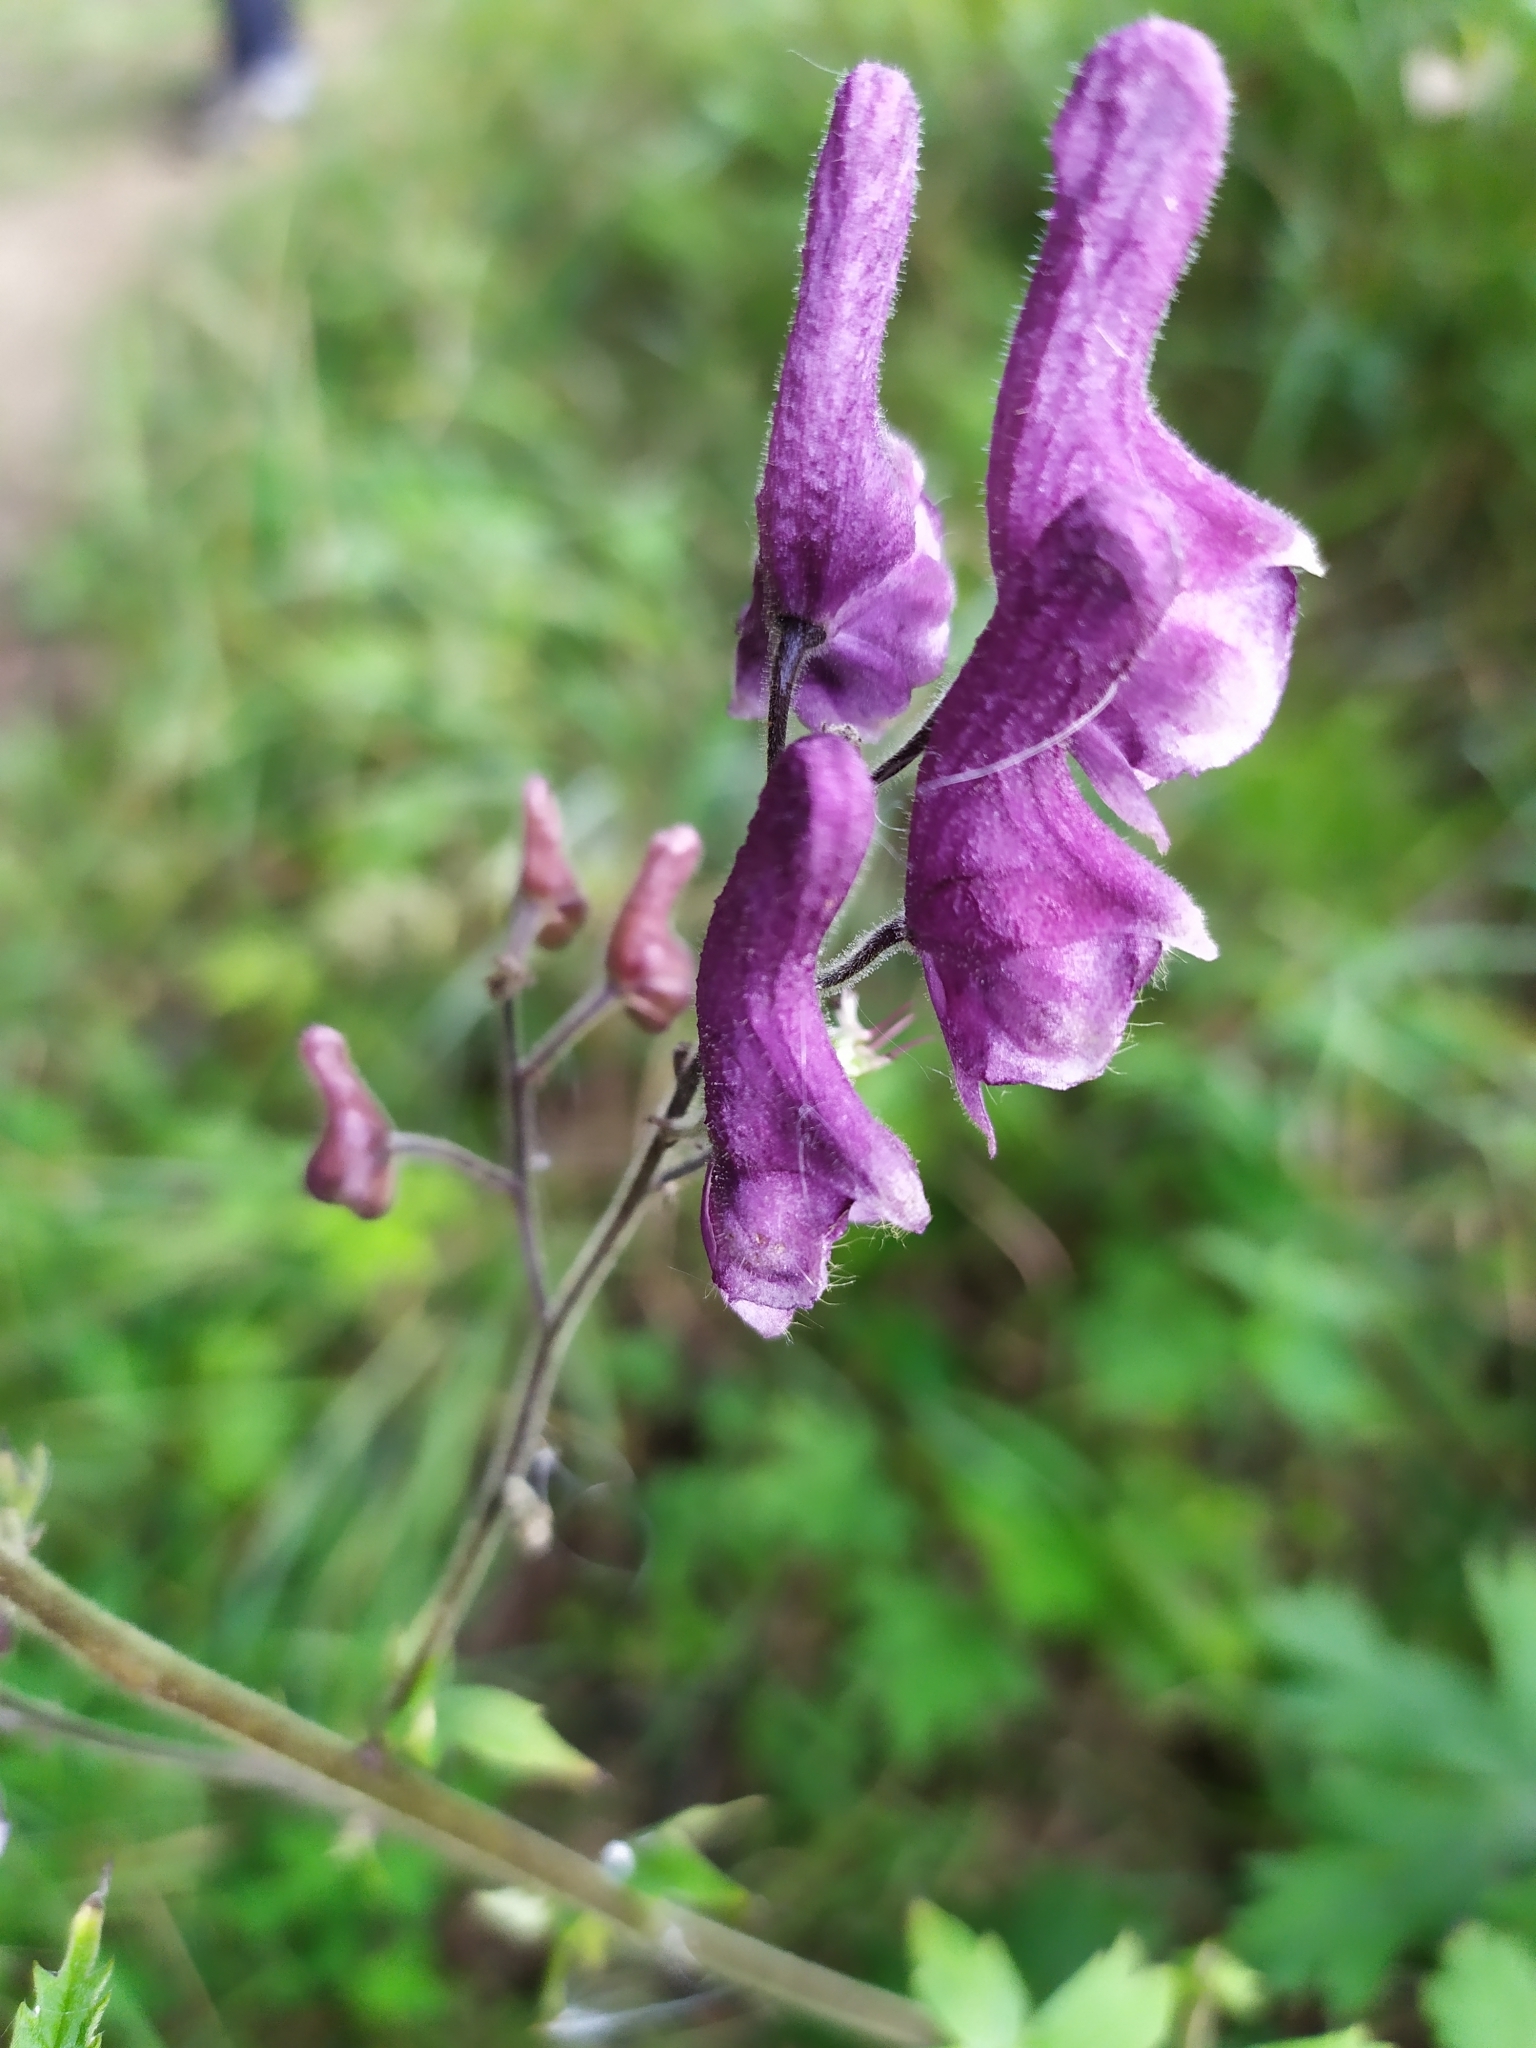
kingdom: Plantae
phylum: Tracheophyta
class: Magnoliopsida
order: Ranunculales
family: Ranunculaceae
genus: Aconitum
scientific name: Aconitum septentrionale
